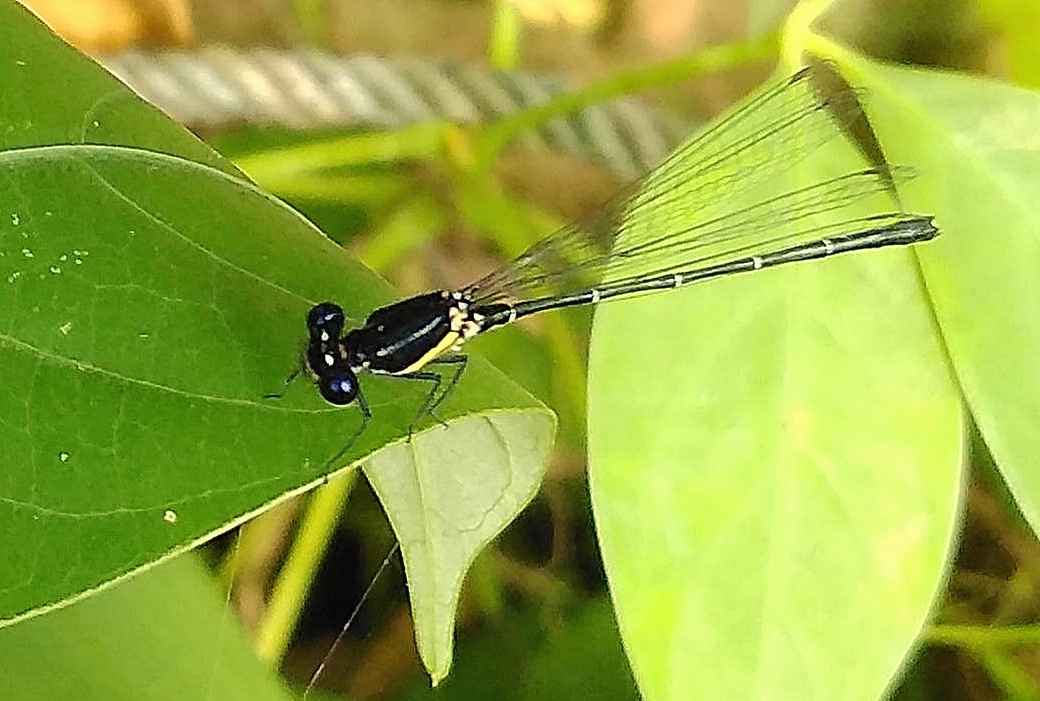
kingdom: Animalia
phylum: Arthropoda
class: Insecta
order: Odonata
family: Platycnemididae
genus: Onychargia
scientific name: Onychargia atrocyana
